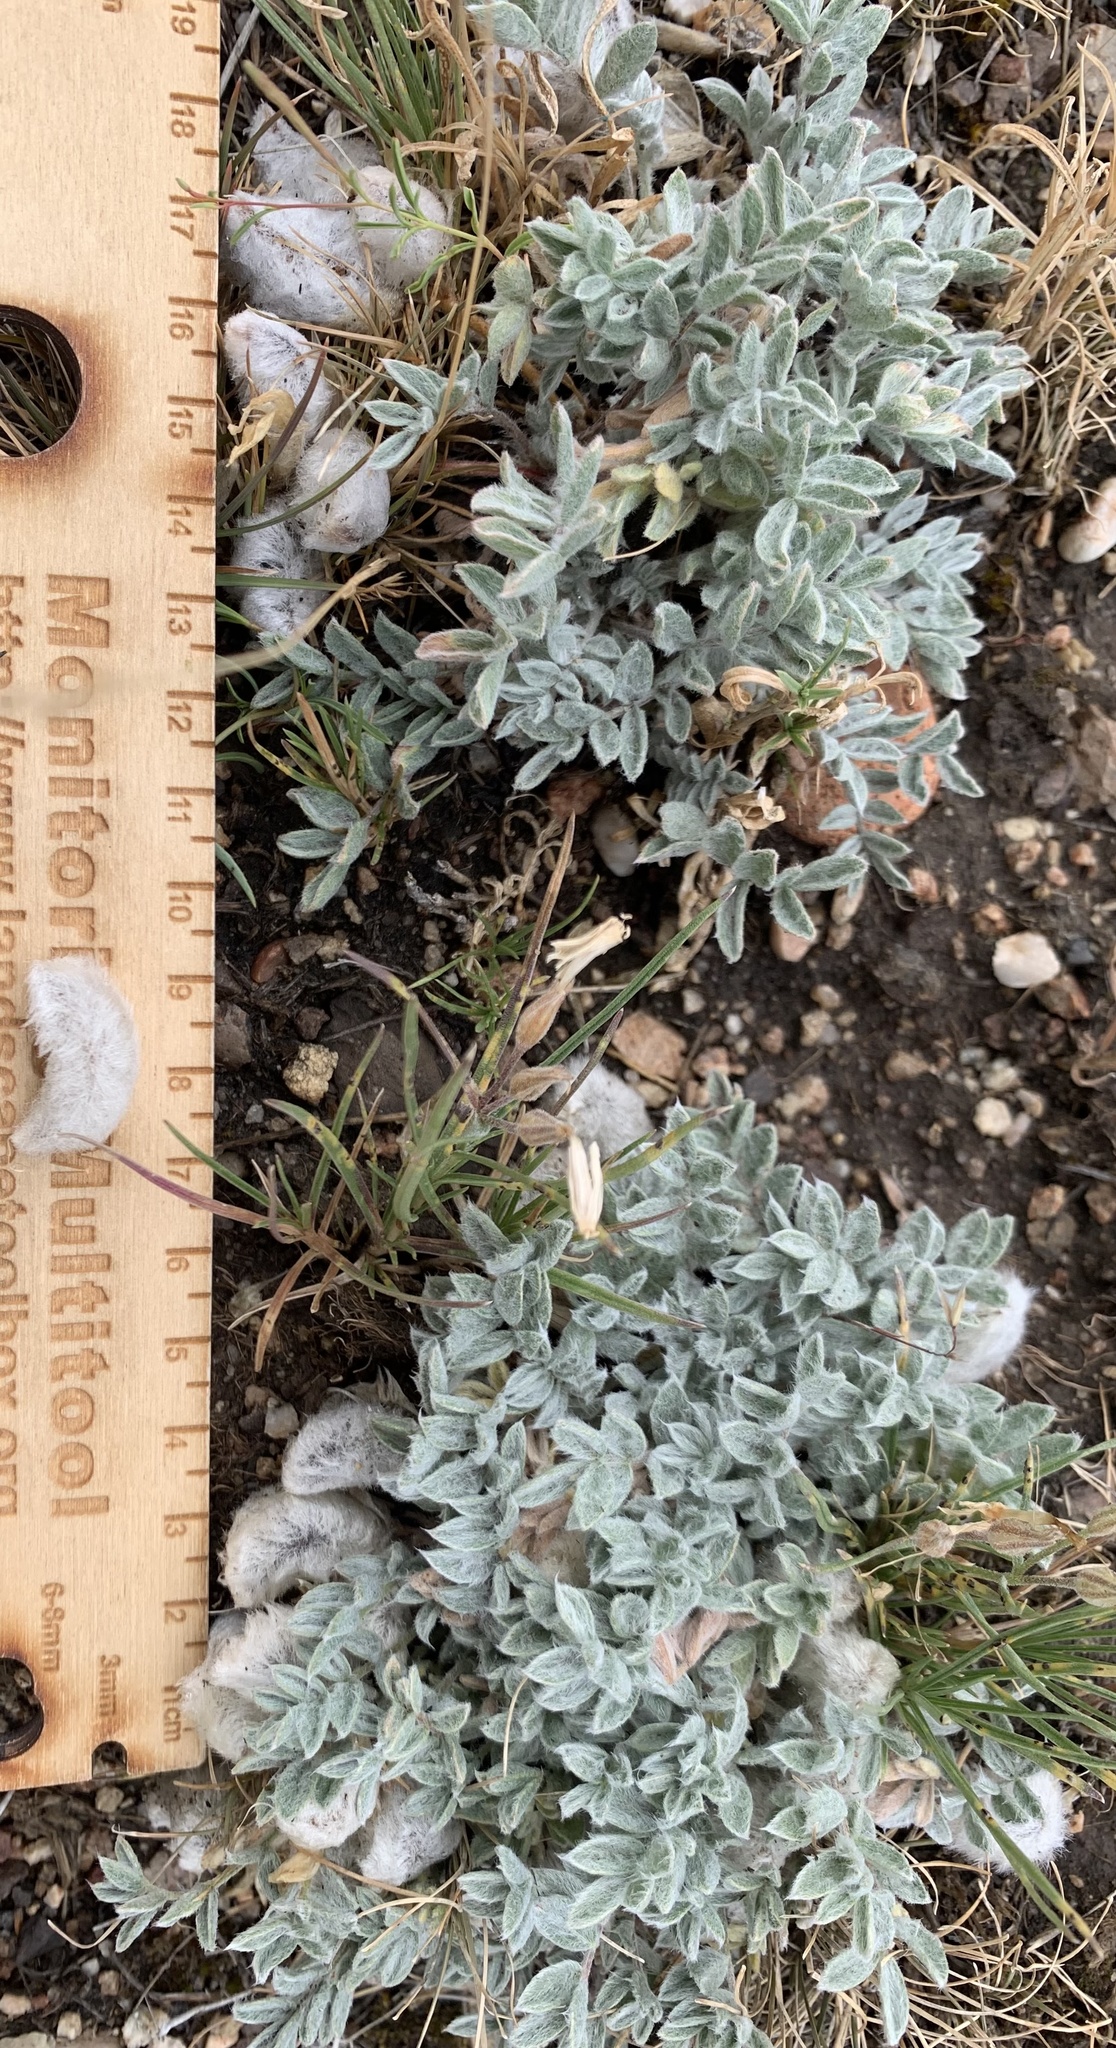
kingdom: Plantae
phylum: Tracheophyta
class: Magnoliopsida
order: Fabales
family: Fabaceae
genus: Astragalus
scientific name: Astragalus purshii
